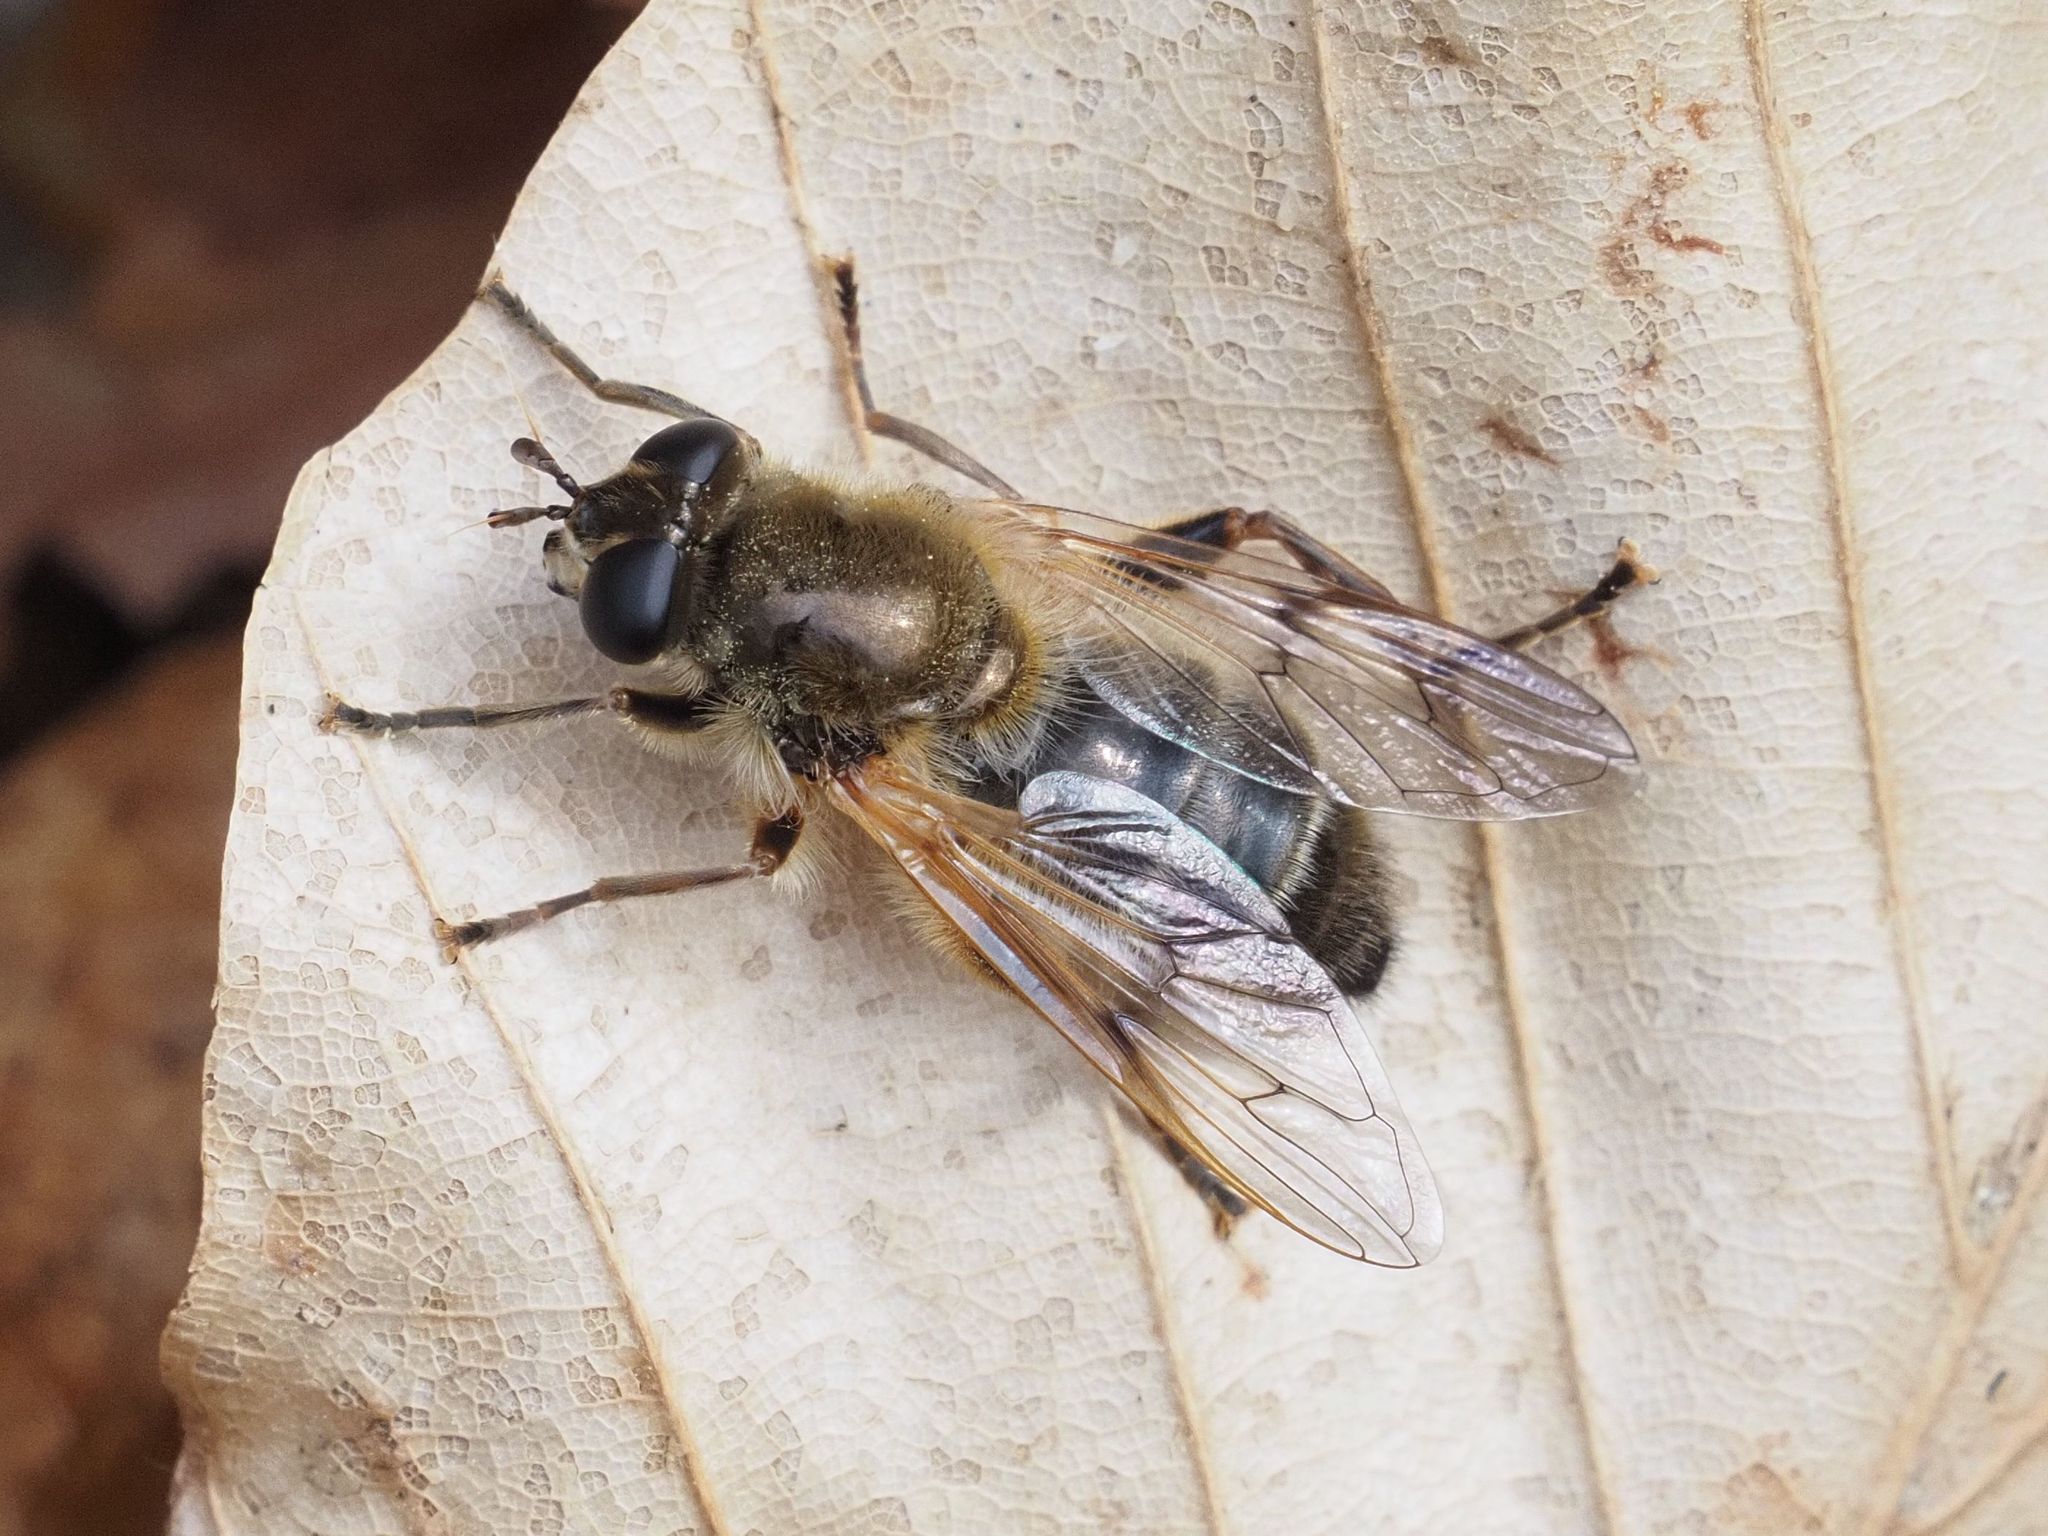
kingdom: Animalia
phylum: Arthropoda
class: Insecta
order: Diptera
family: Syrphidae
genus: Brachypalpus
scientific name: Brachypalpus valgus
